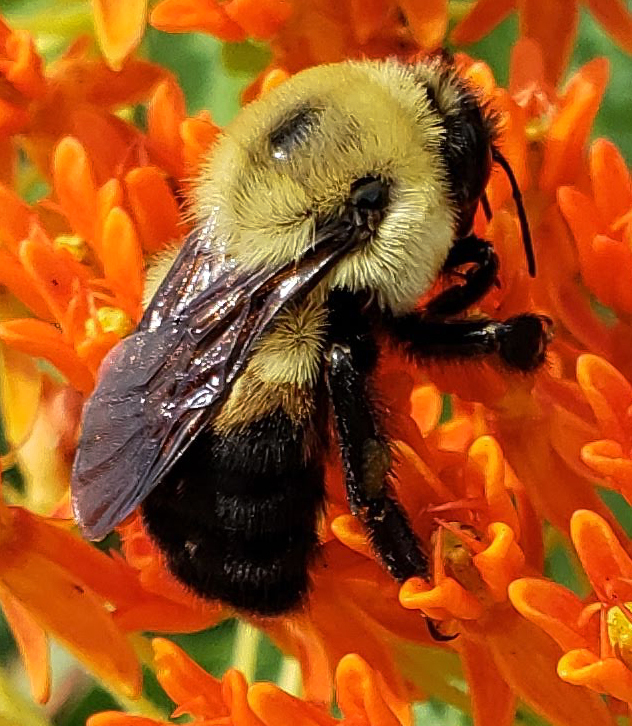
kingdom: Animalia
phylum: Arthropoda
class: Insecta
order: Hymenoptera
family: Apidae
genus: Bombus
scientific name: Bombus griseocollis
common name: Brown-belted bumble bee
